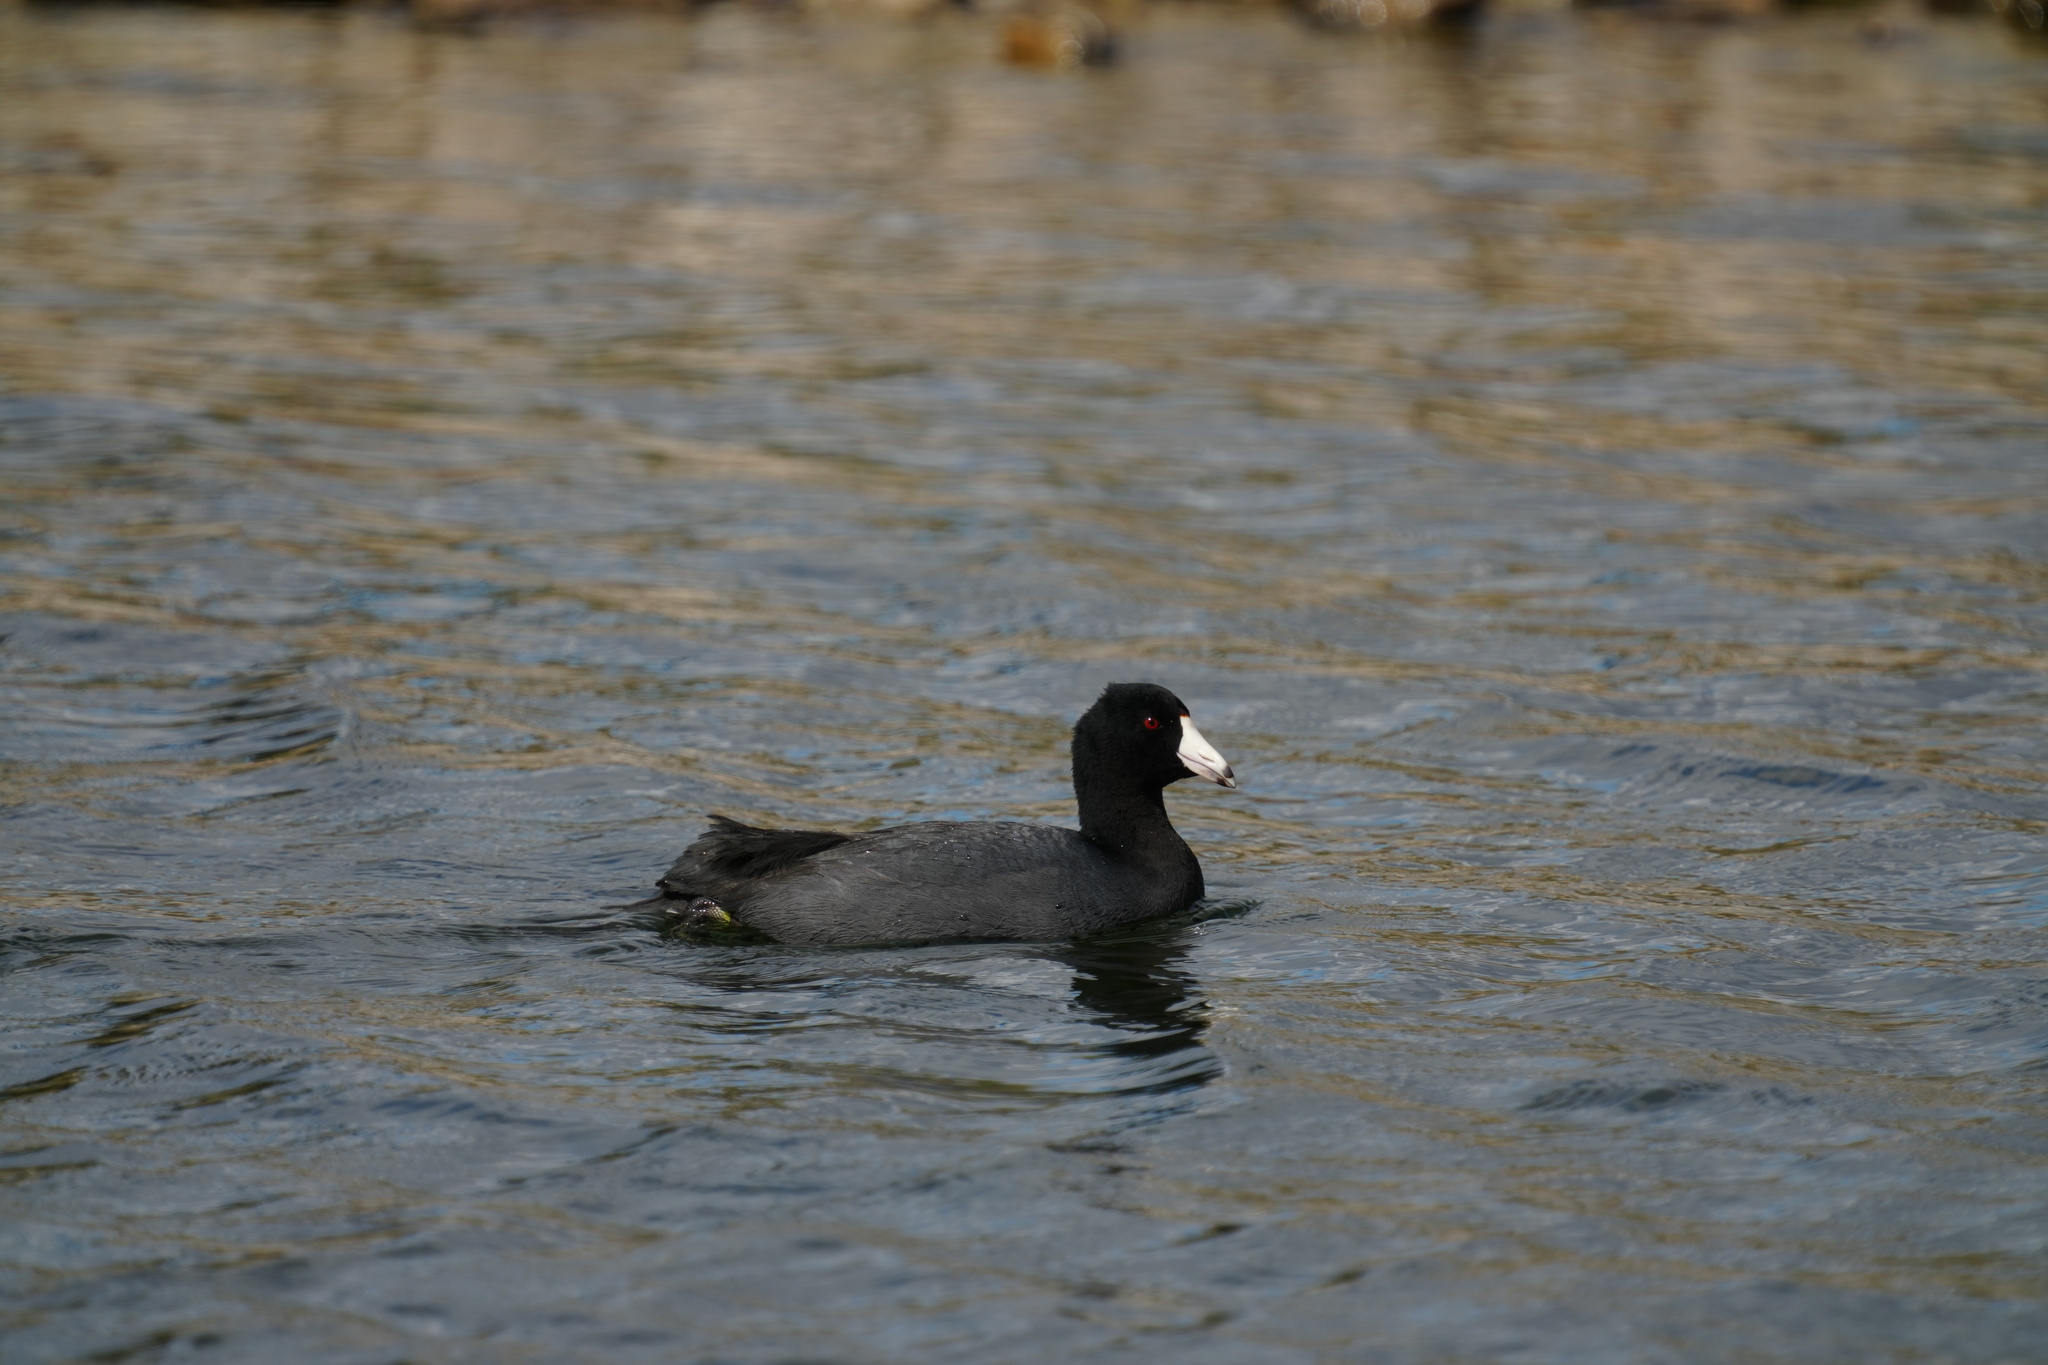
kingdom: Animalia
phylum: Chordata
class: Aves
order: Gruiformes
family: Rallidae
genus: Fulica
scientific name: Fulica americana
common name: American coot
